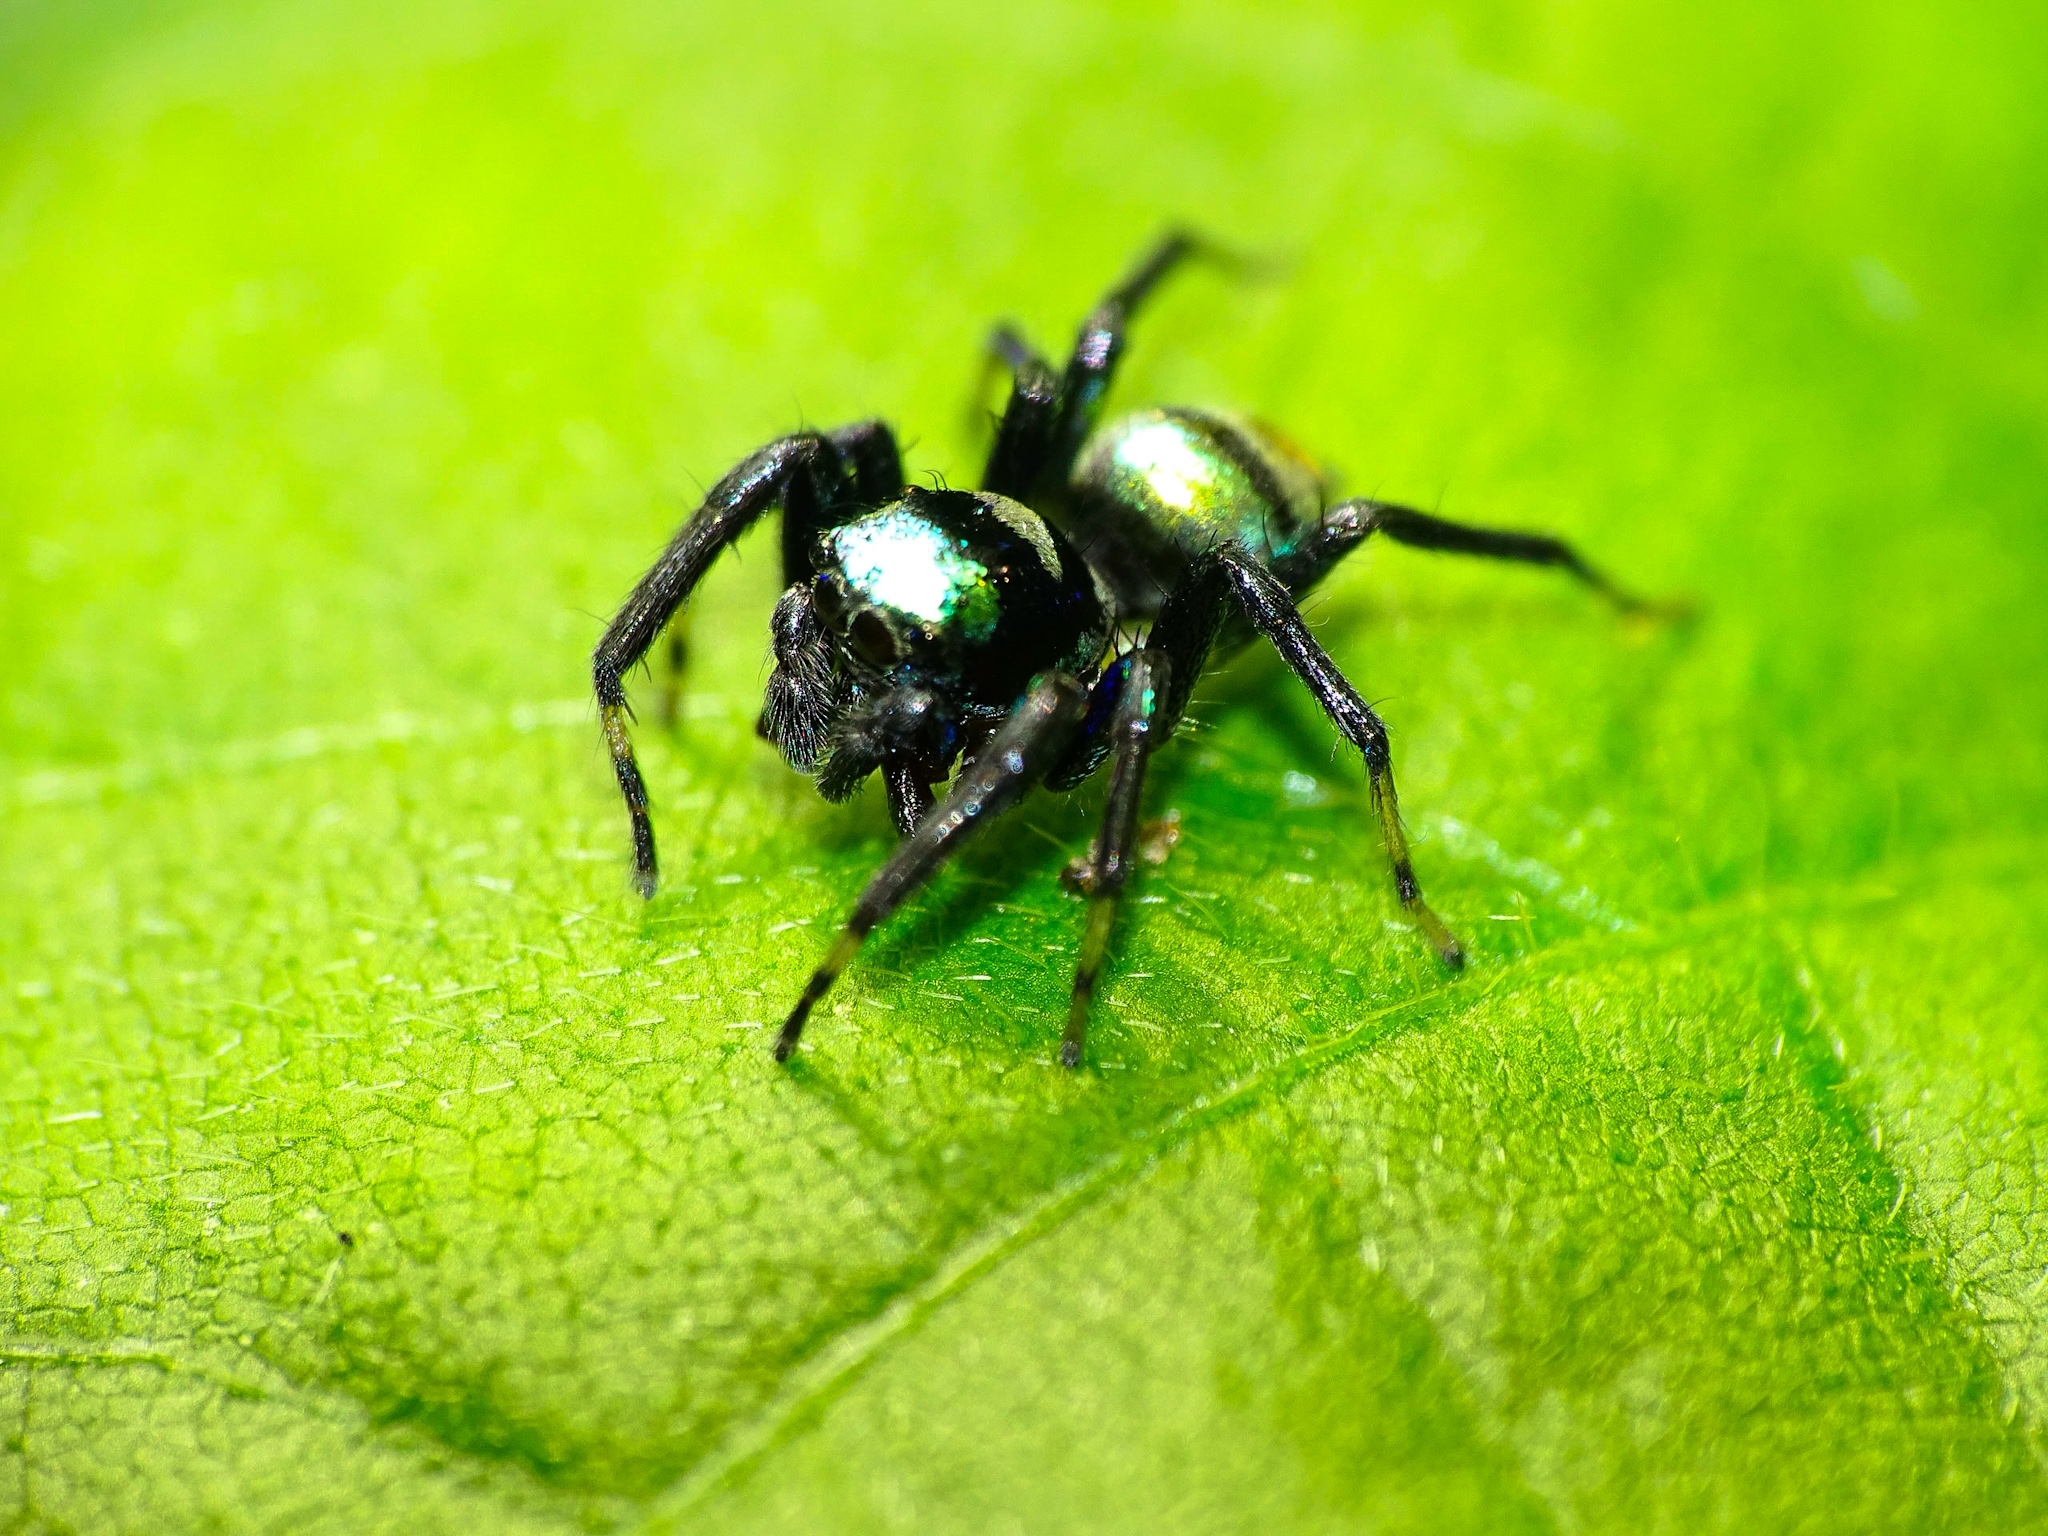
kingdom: Animalia
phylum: Arthropoda
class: Arachnida
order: Araneae
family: Salticidae
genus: Phintella
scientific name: Phintella vittata
